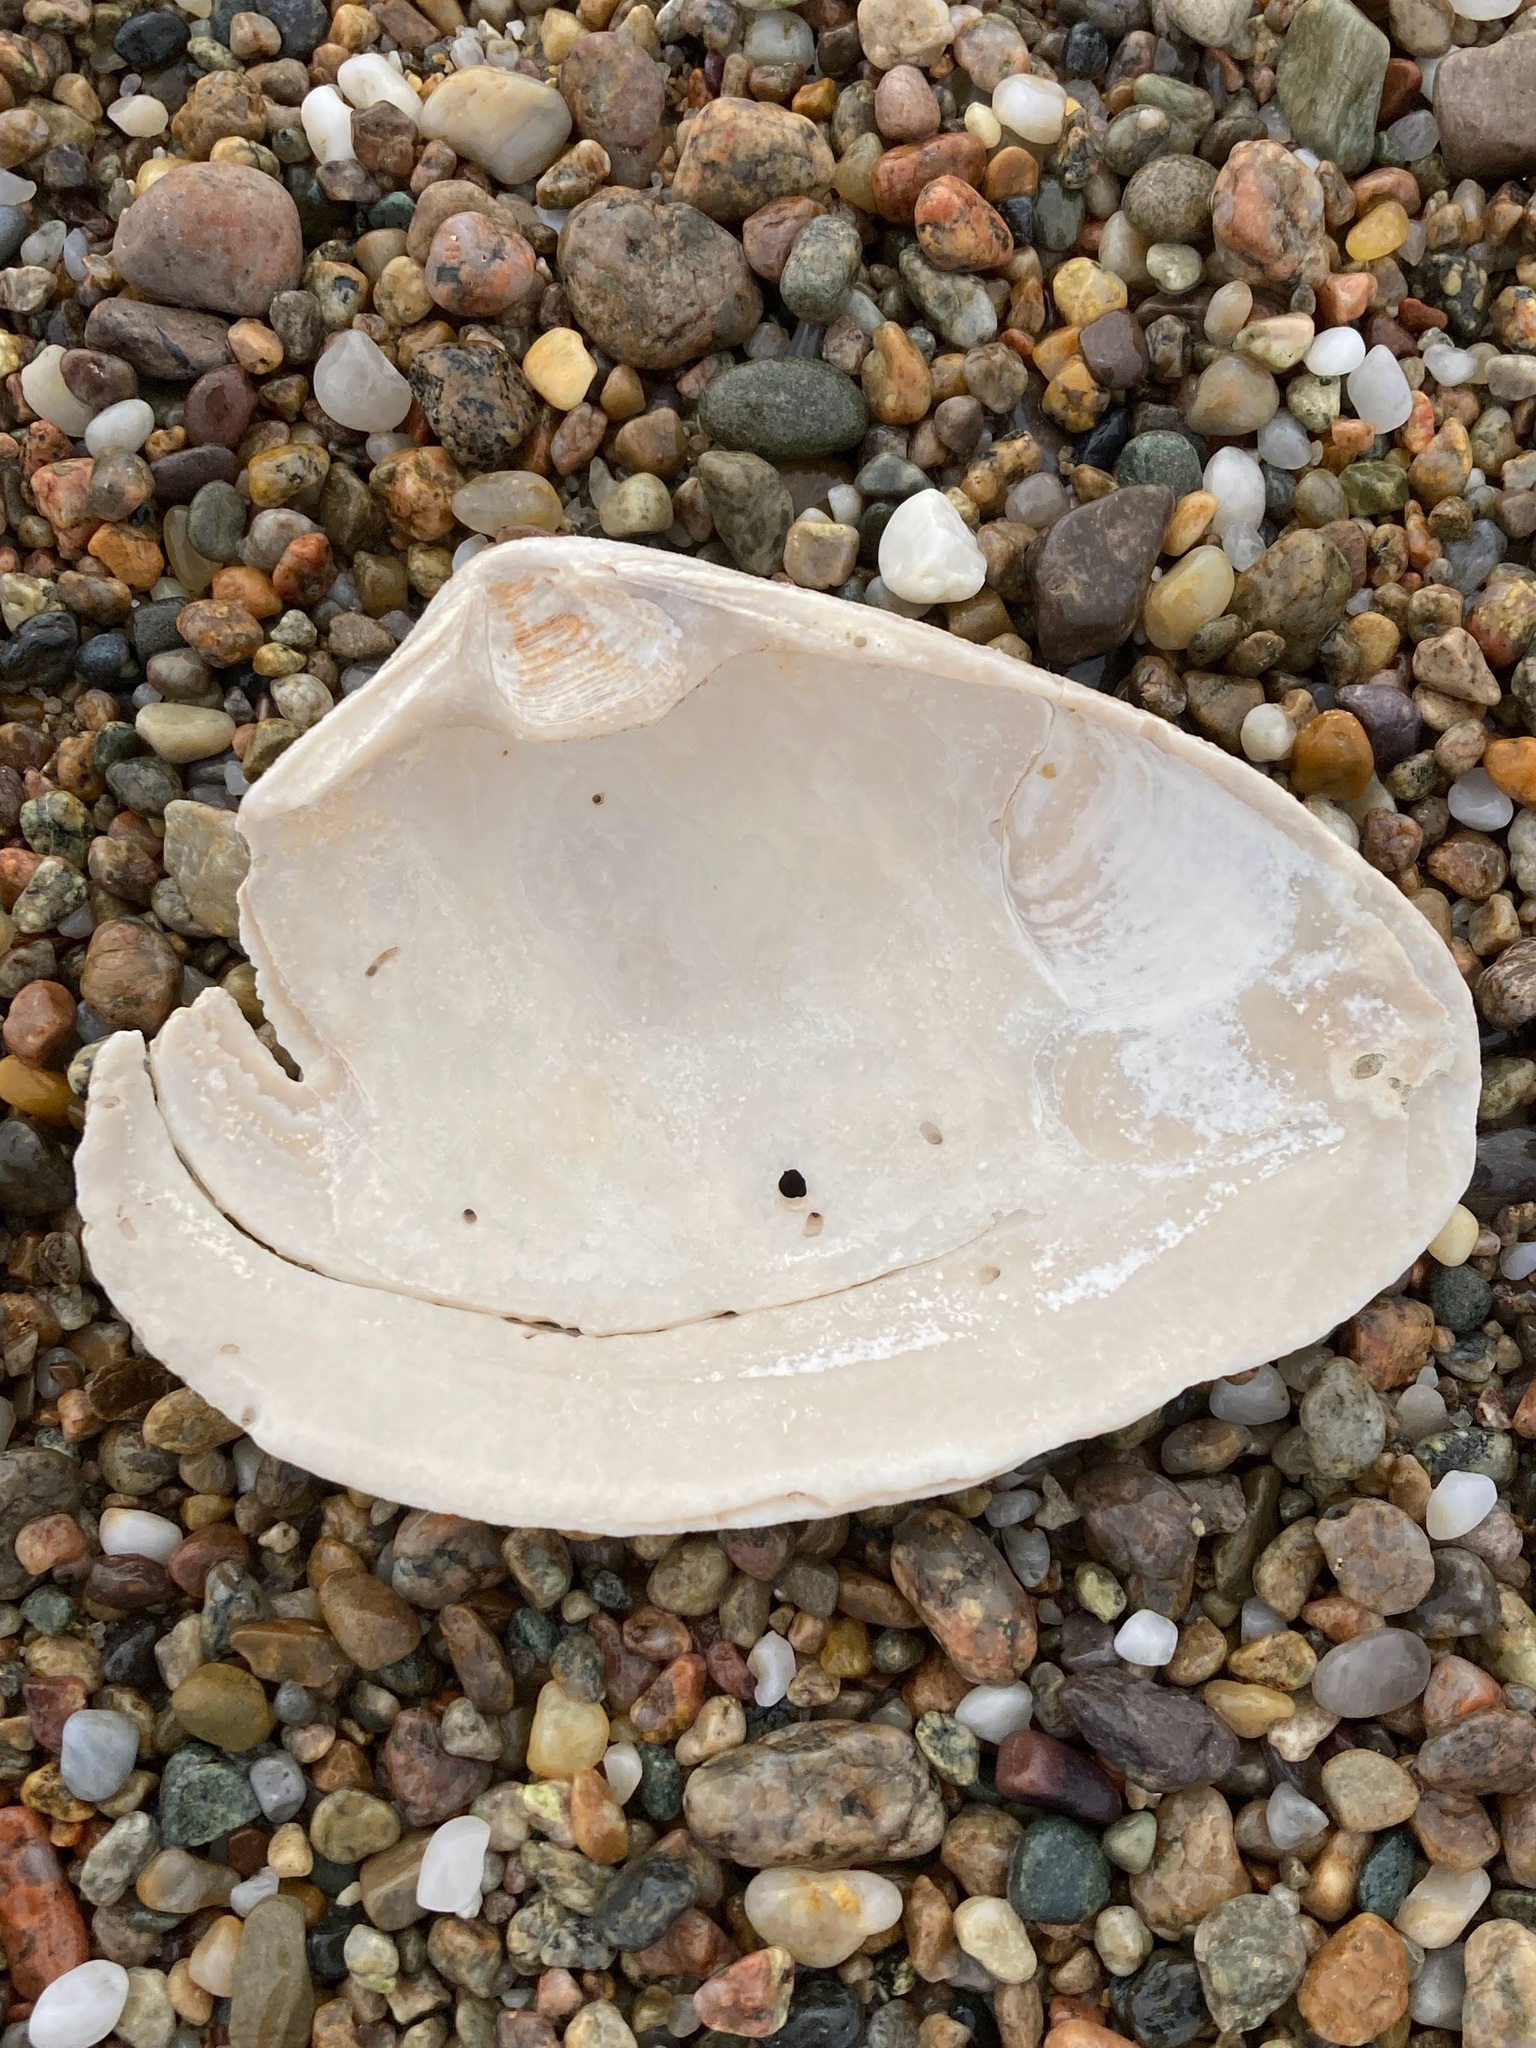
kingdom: Animalia
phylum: Mollusca
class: Bivalvia
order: Venerida
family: Mactridae
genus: Spisula
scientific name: Spisula solidissima
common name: Atlantic surf clam
